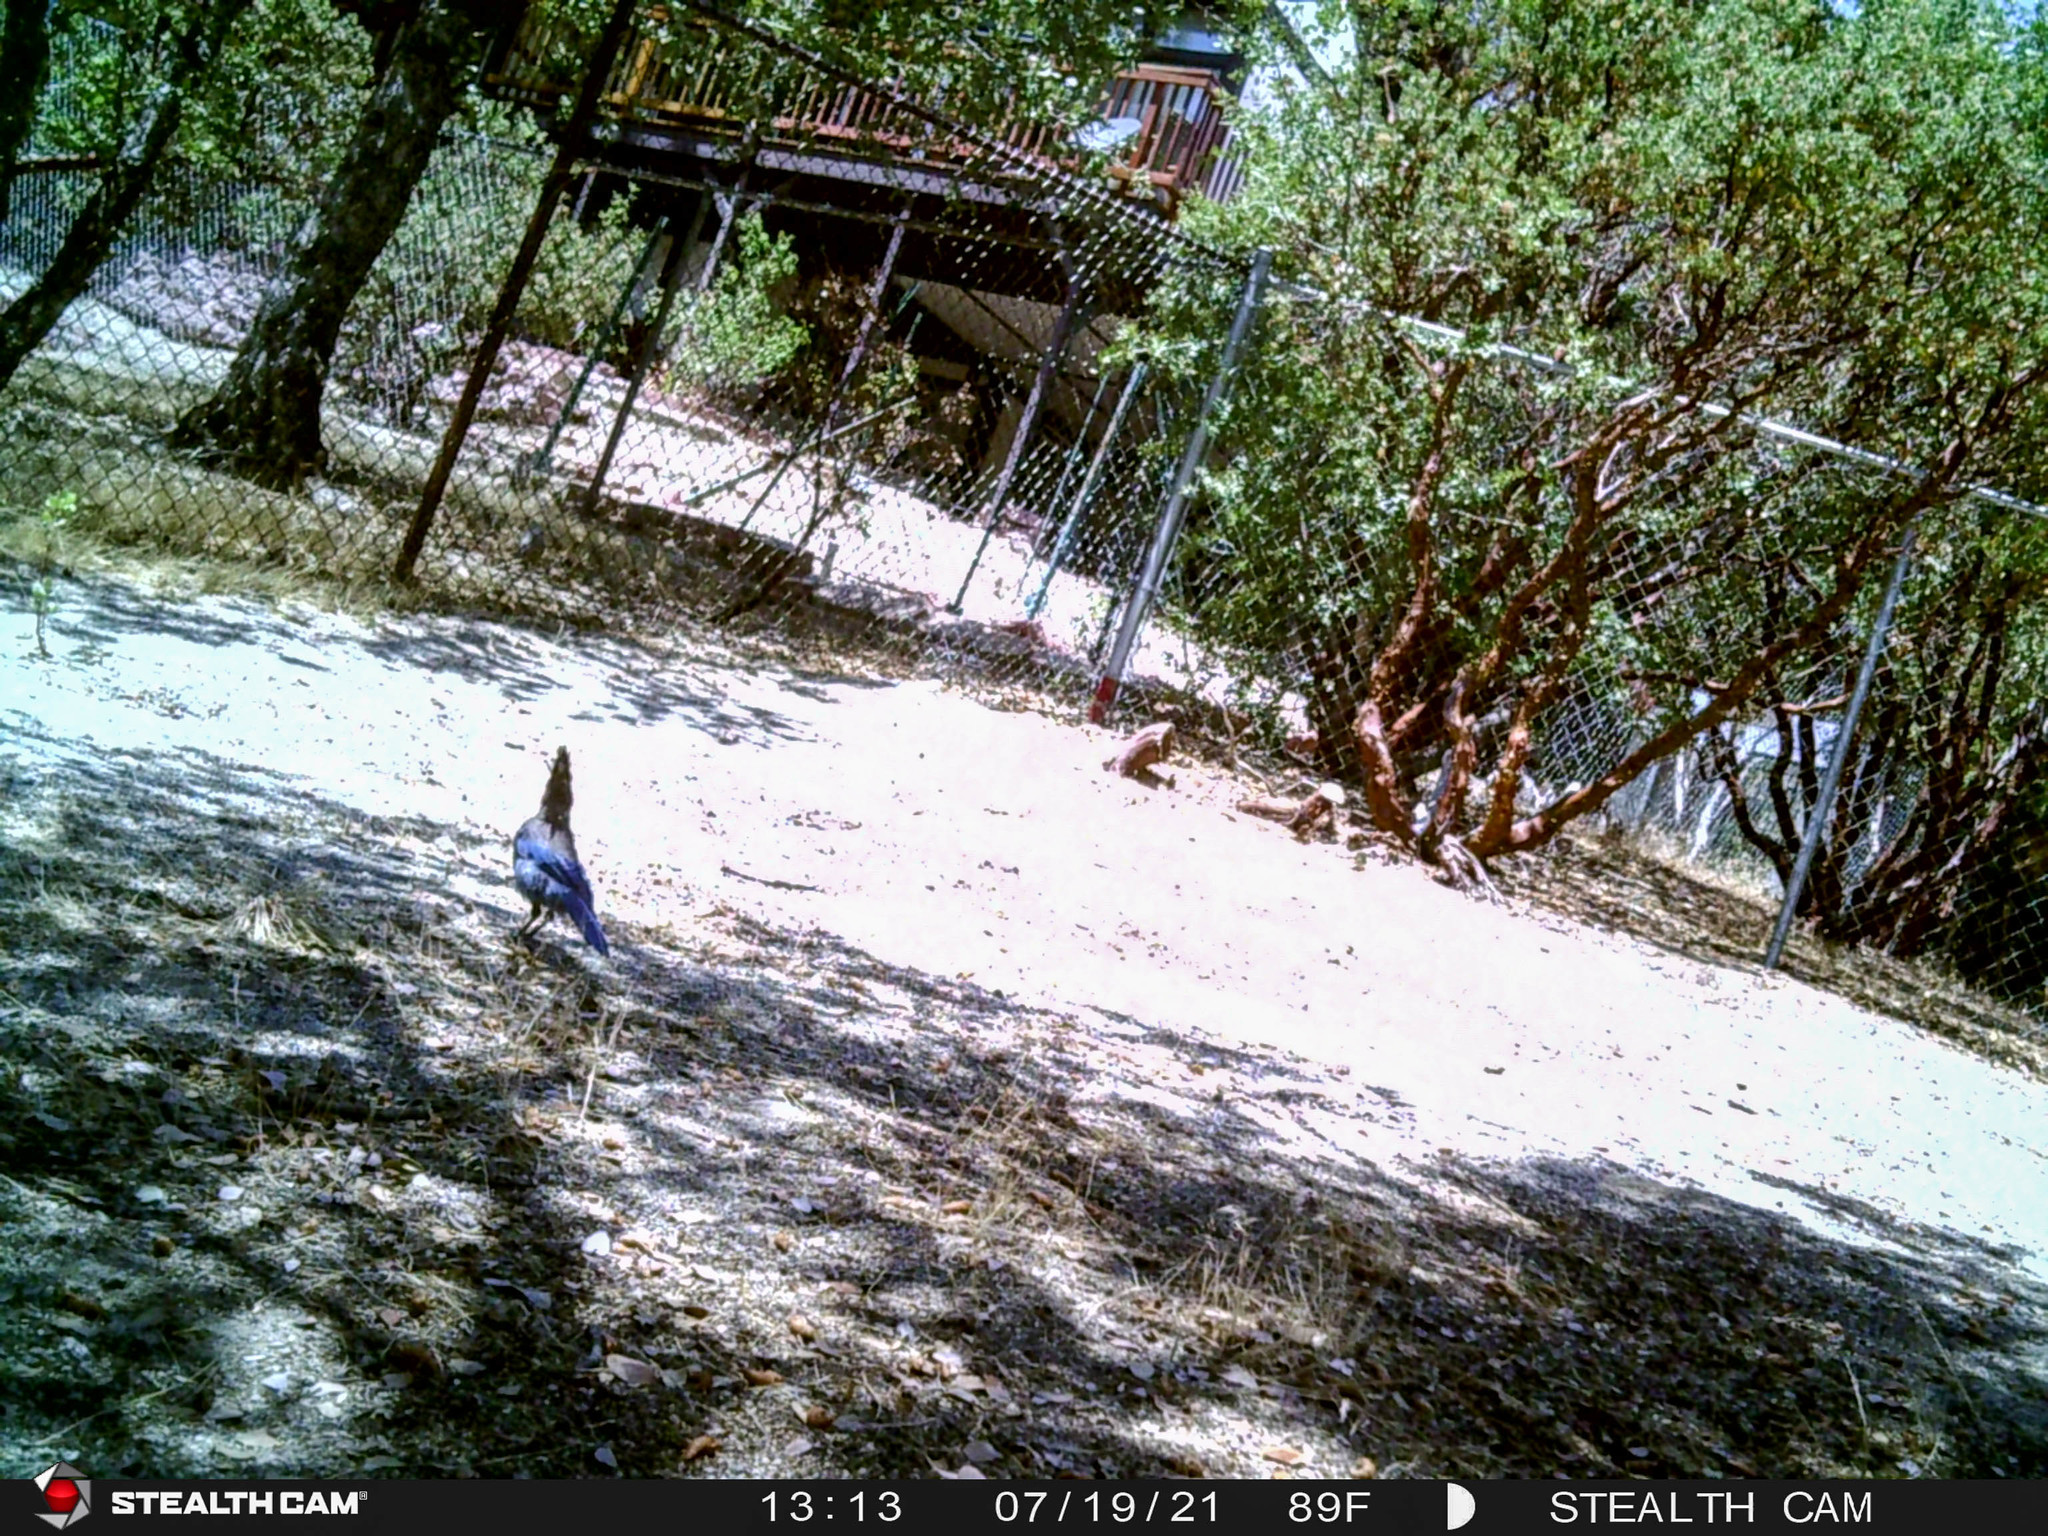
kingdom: Animalia
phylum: Chordata
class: Aves
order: Passeriformes
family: Corvidae
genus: Cyanocitta
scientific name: Cyanocitta stelleri
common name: Steller's jay
